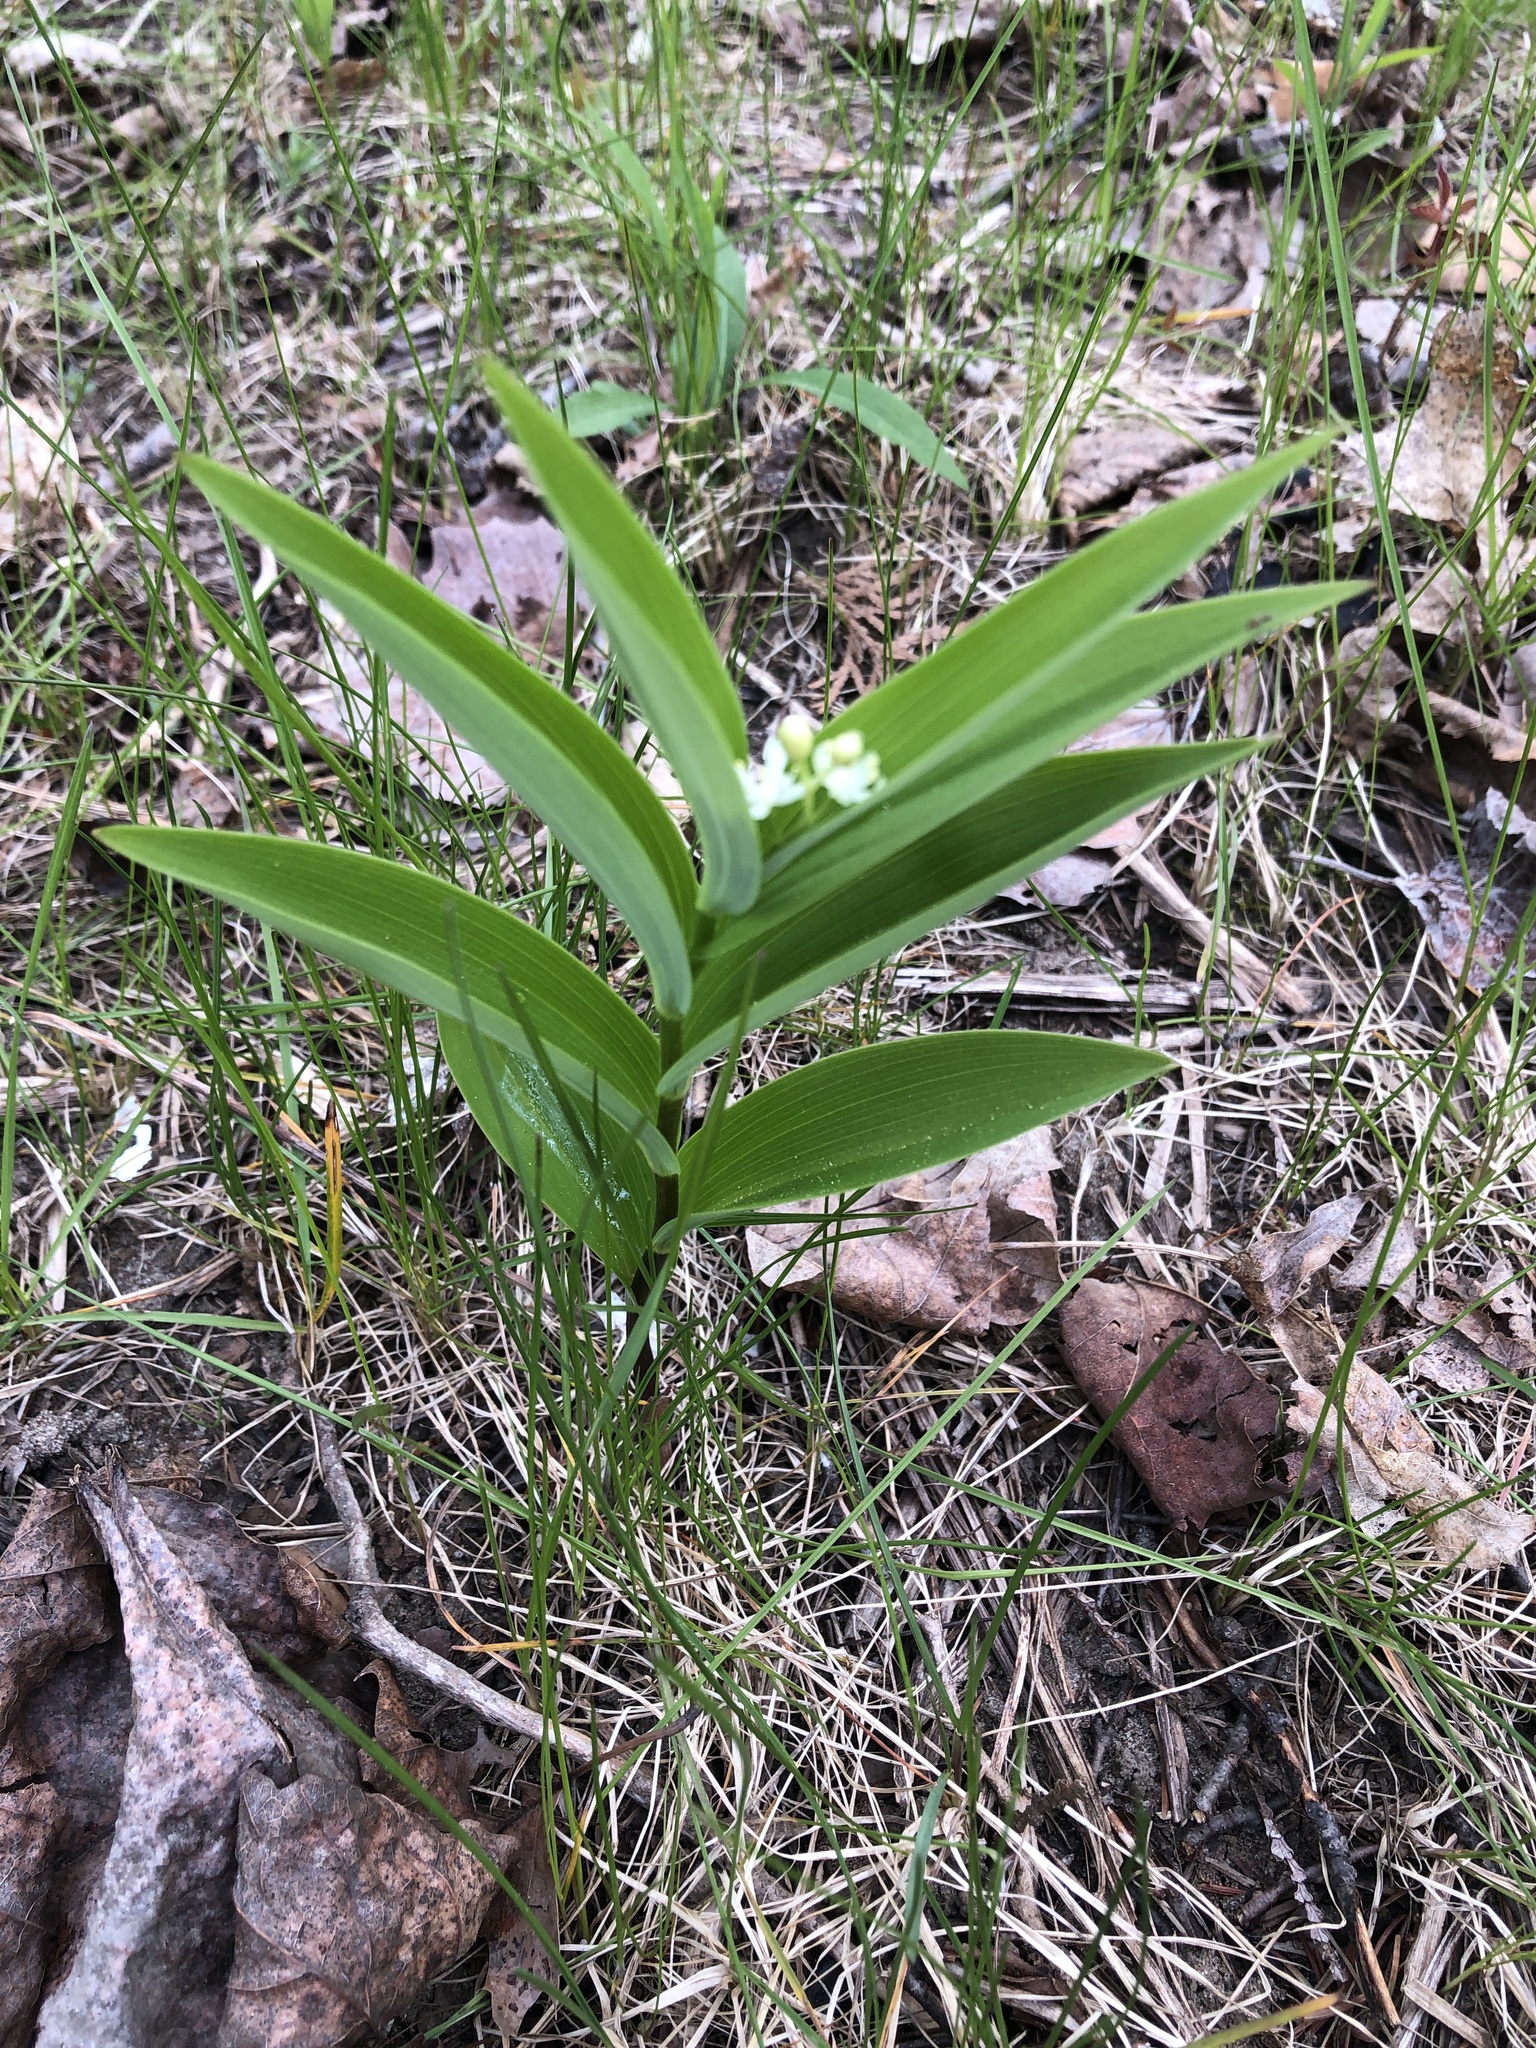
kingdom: Plantae
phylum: Tracheophyta
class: Liliopsida
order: Asparagales
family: Asparagaceae
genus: Maianthemum
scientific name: Maianthemum stellatum
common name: Little false solomon's seal
